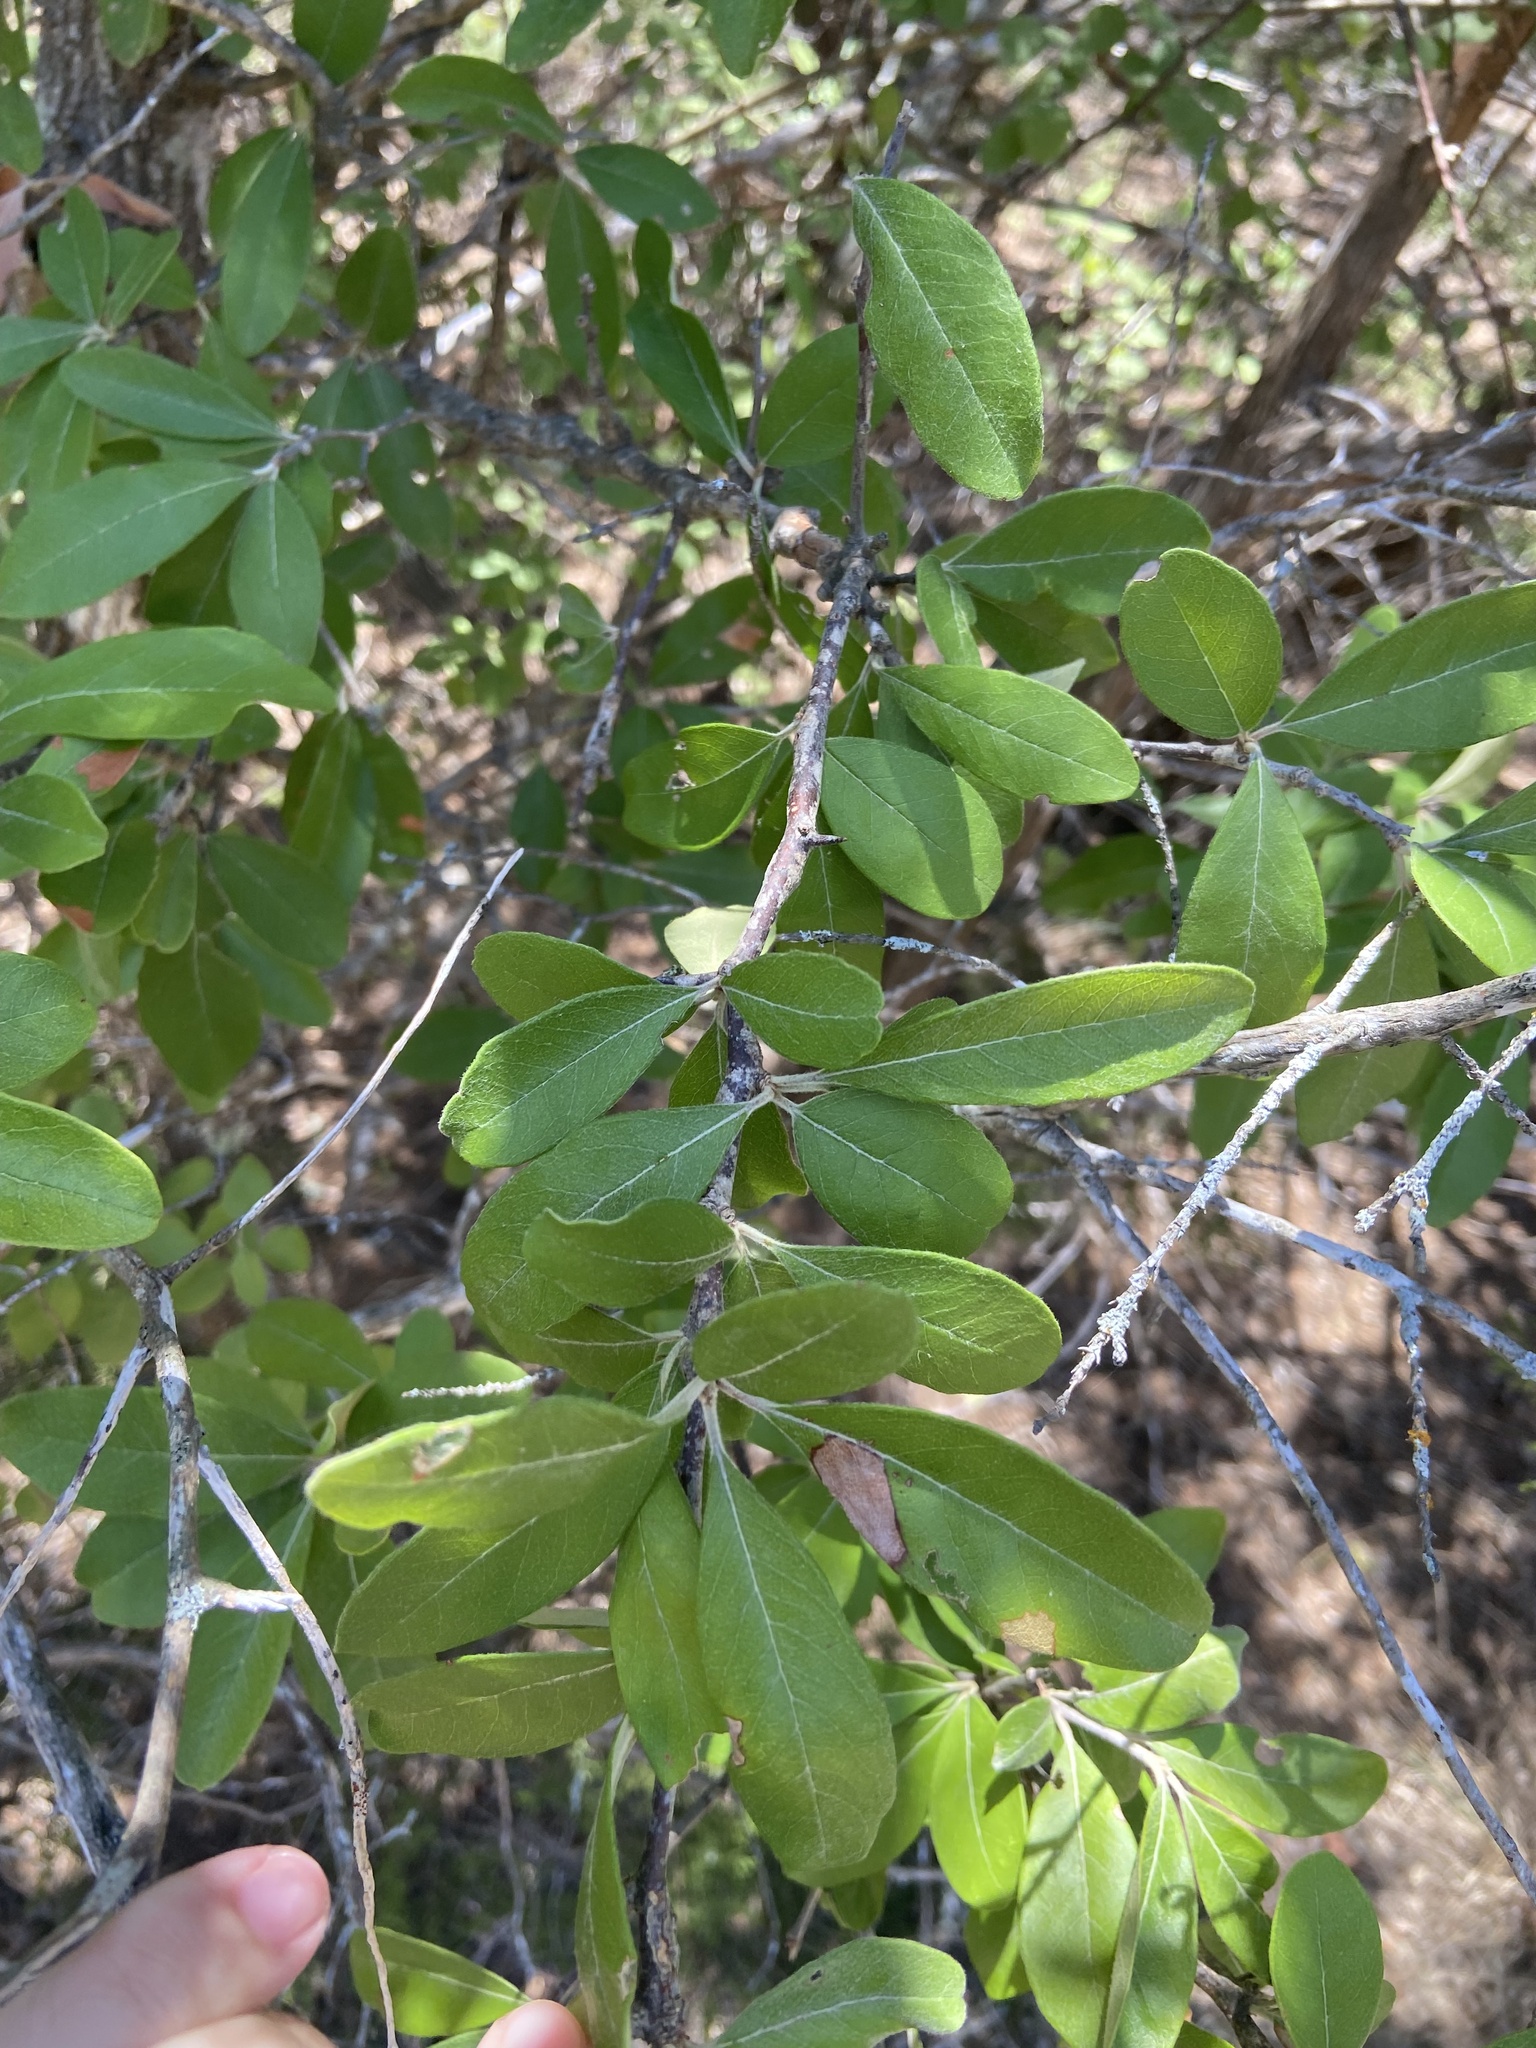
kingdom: Plantae
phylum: Tracheophyta
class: Magnoliopsida
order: Ericales
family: Sapotaceae
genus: Sideroxylon
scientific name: Sideroxylon lanuginosum
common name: Chittamwood
